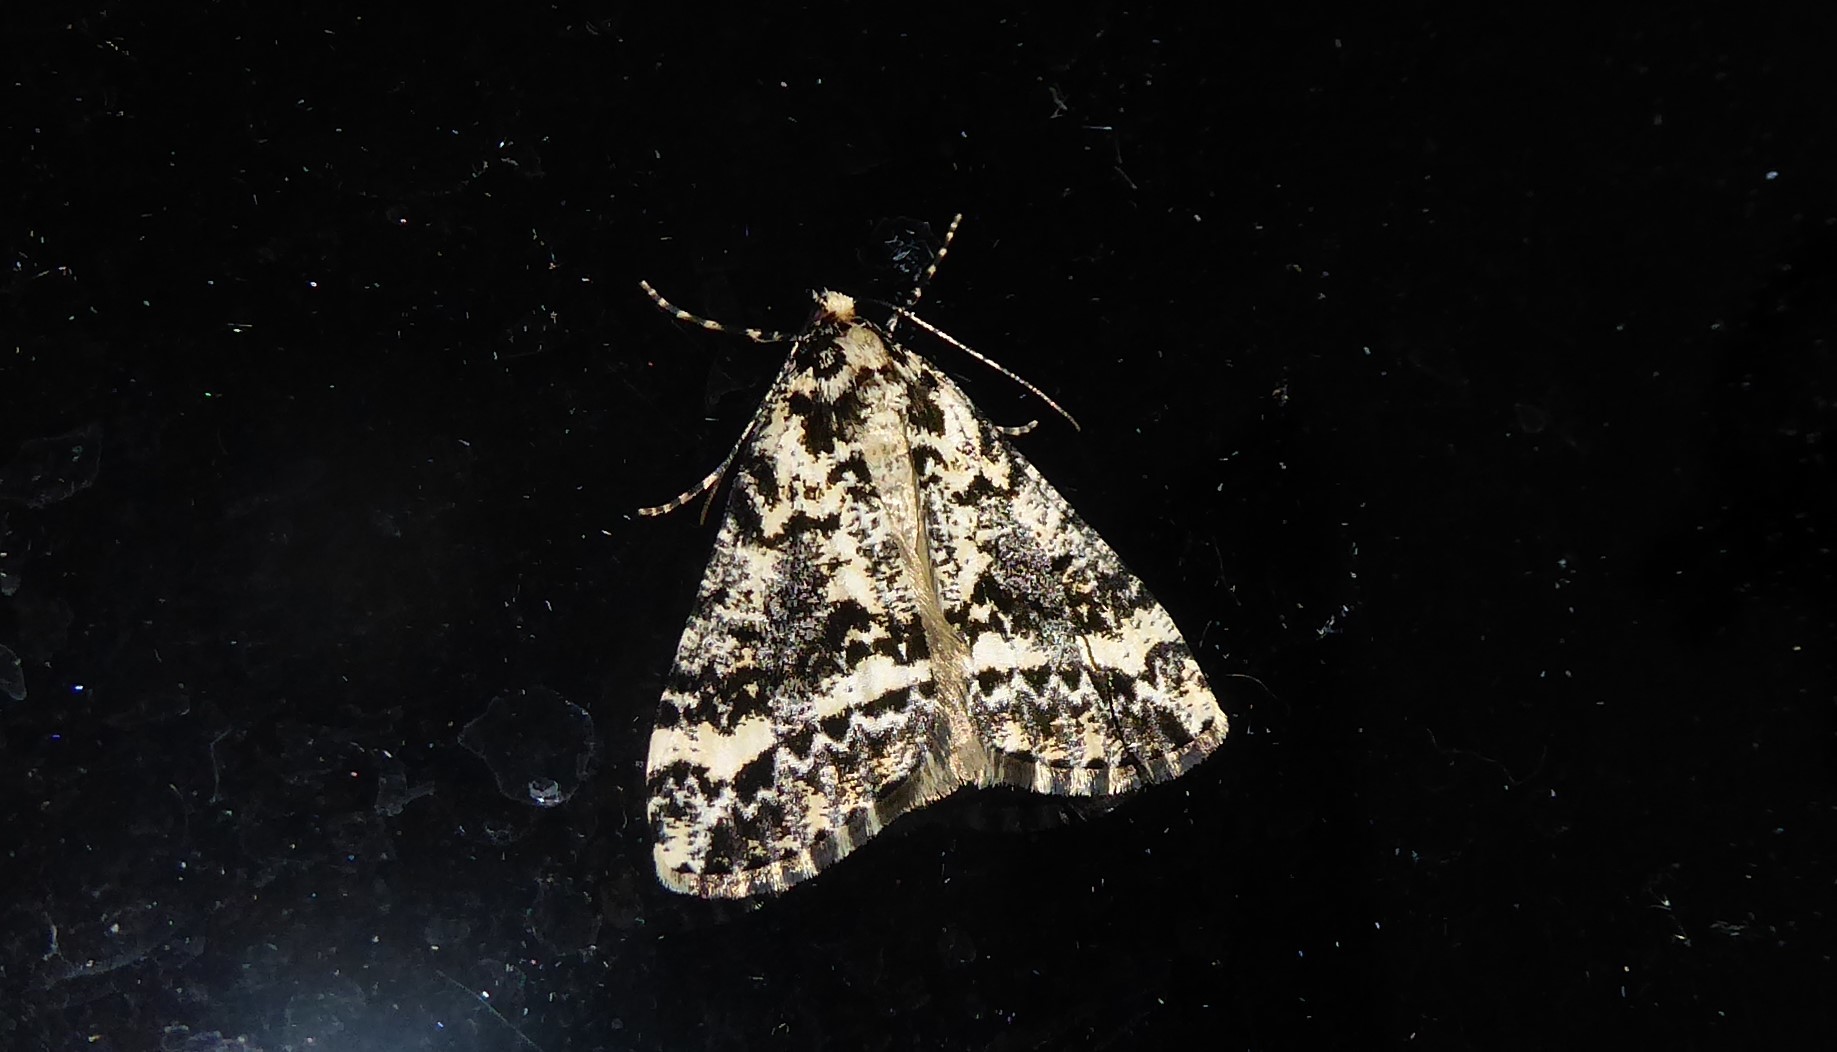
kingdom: Animalia
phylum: Arthropoda
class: Insecta
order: Lepidoptera
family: Geometridae
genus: Pseudocoremia
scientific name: Pseudocoremia leucelaea
